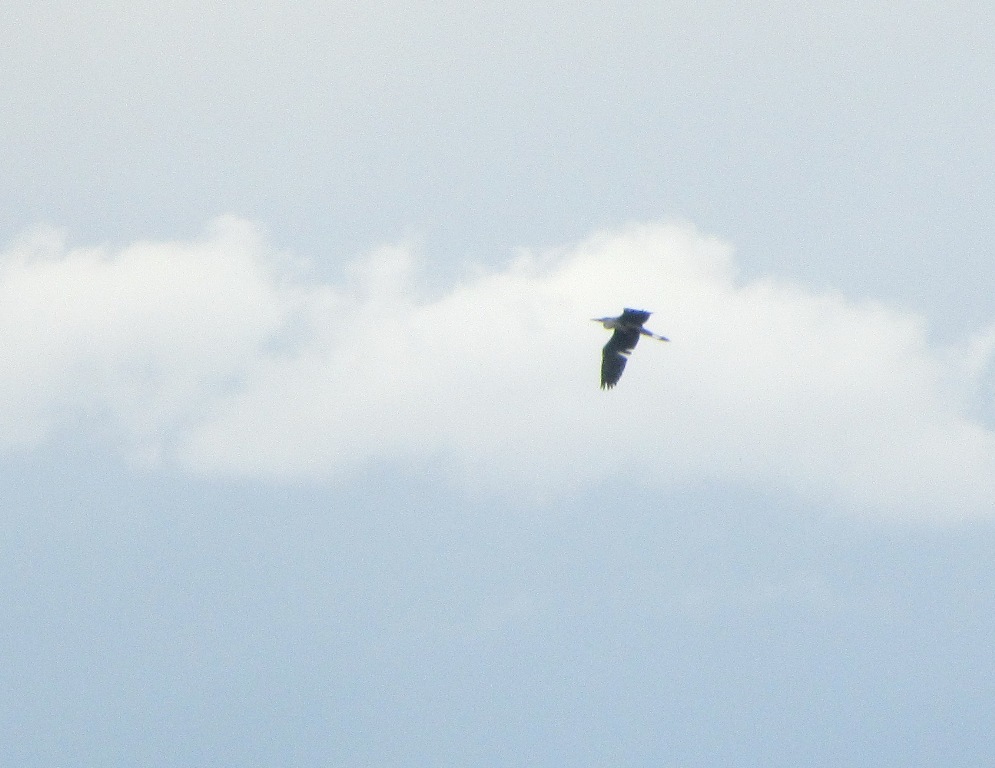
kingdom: Animalia
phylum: Chordata
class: Aves
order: Pelecaniformes
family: Ardeidae
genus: Ardea
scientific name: Ardea cinerea
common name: Grey heron
